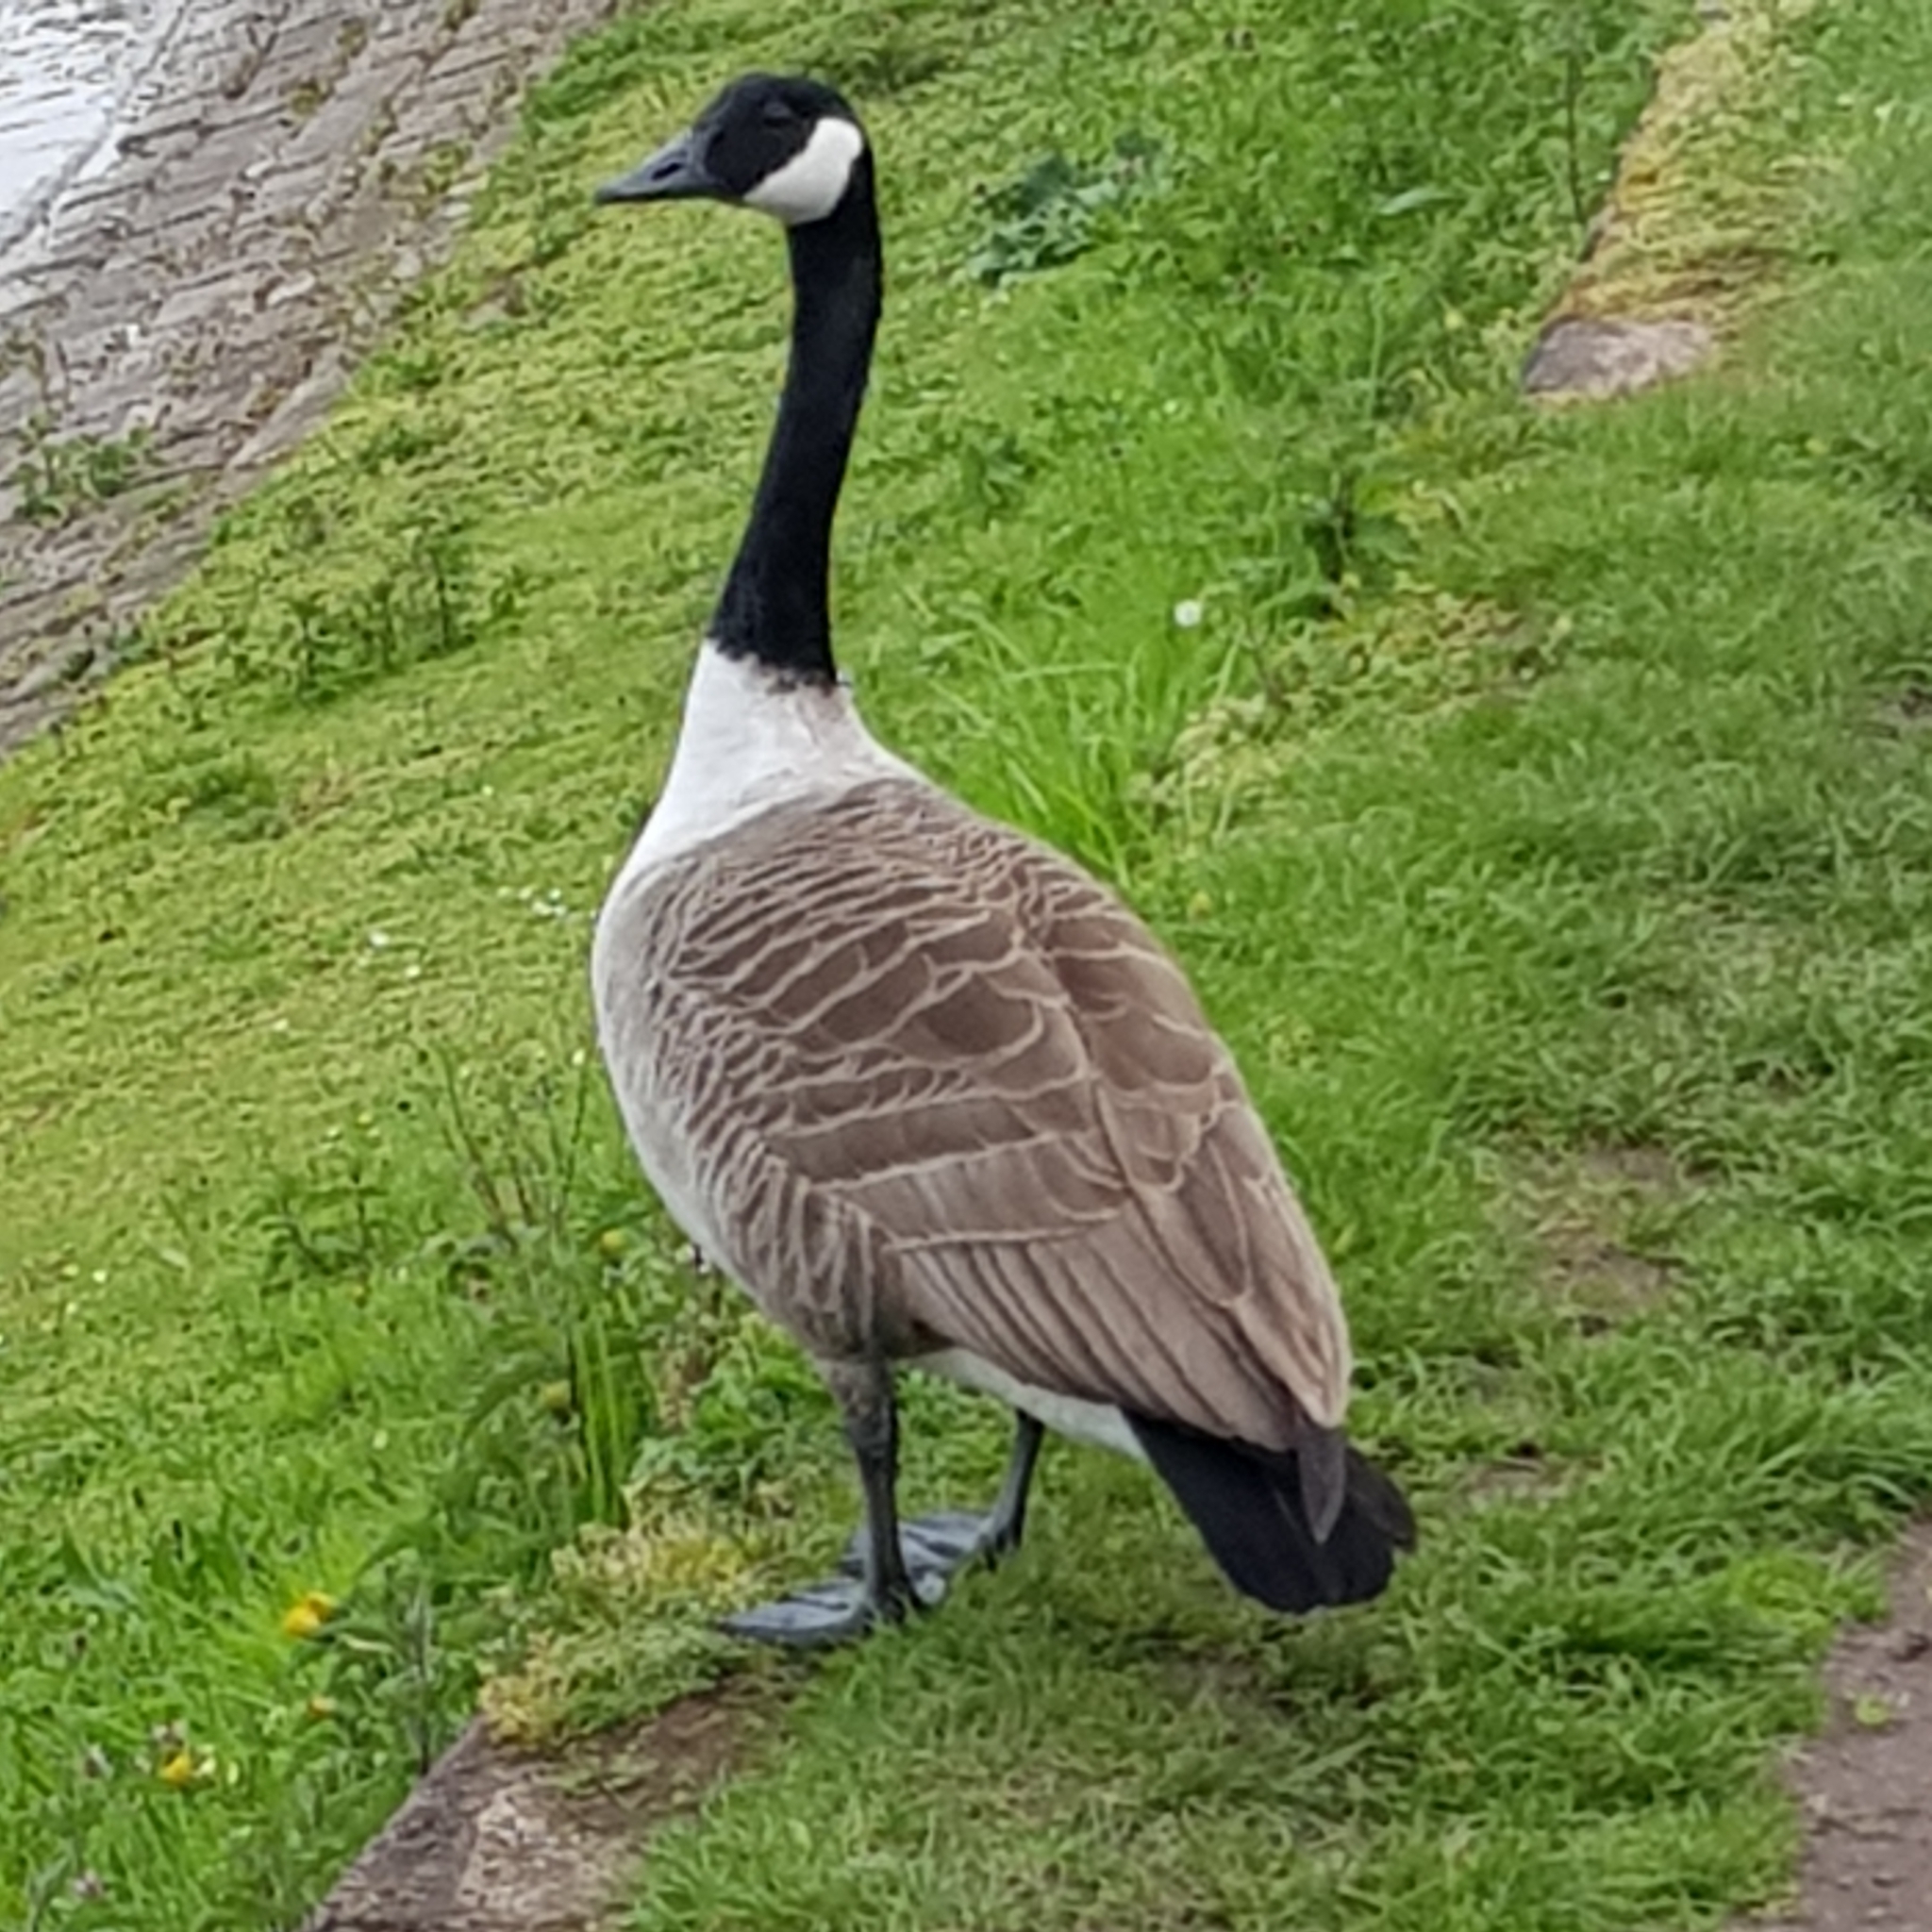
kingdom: Animalia
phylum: Chordata
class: Aves
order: Anseriformes
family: Anatidae
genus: Branta
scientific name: Branta canadensis
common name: Canada goose
